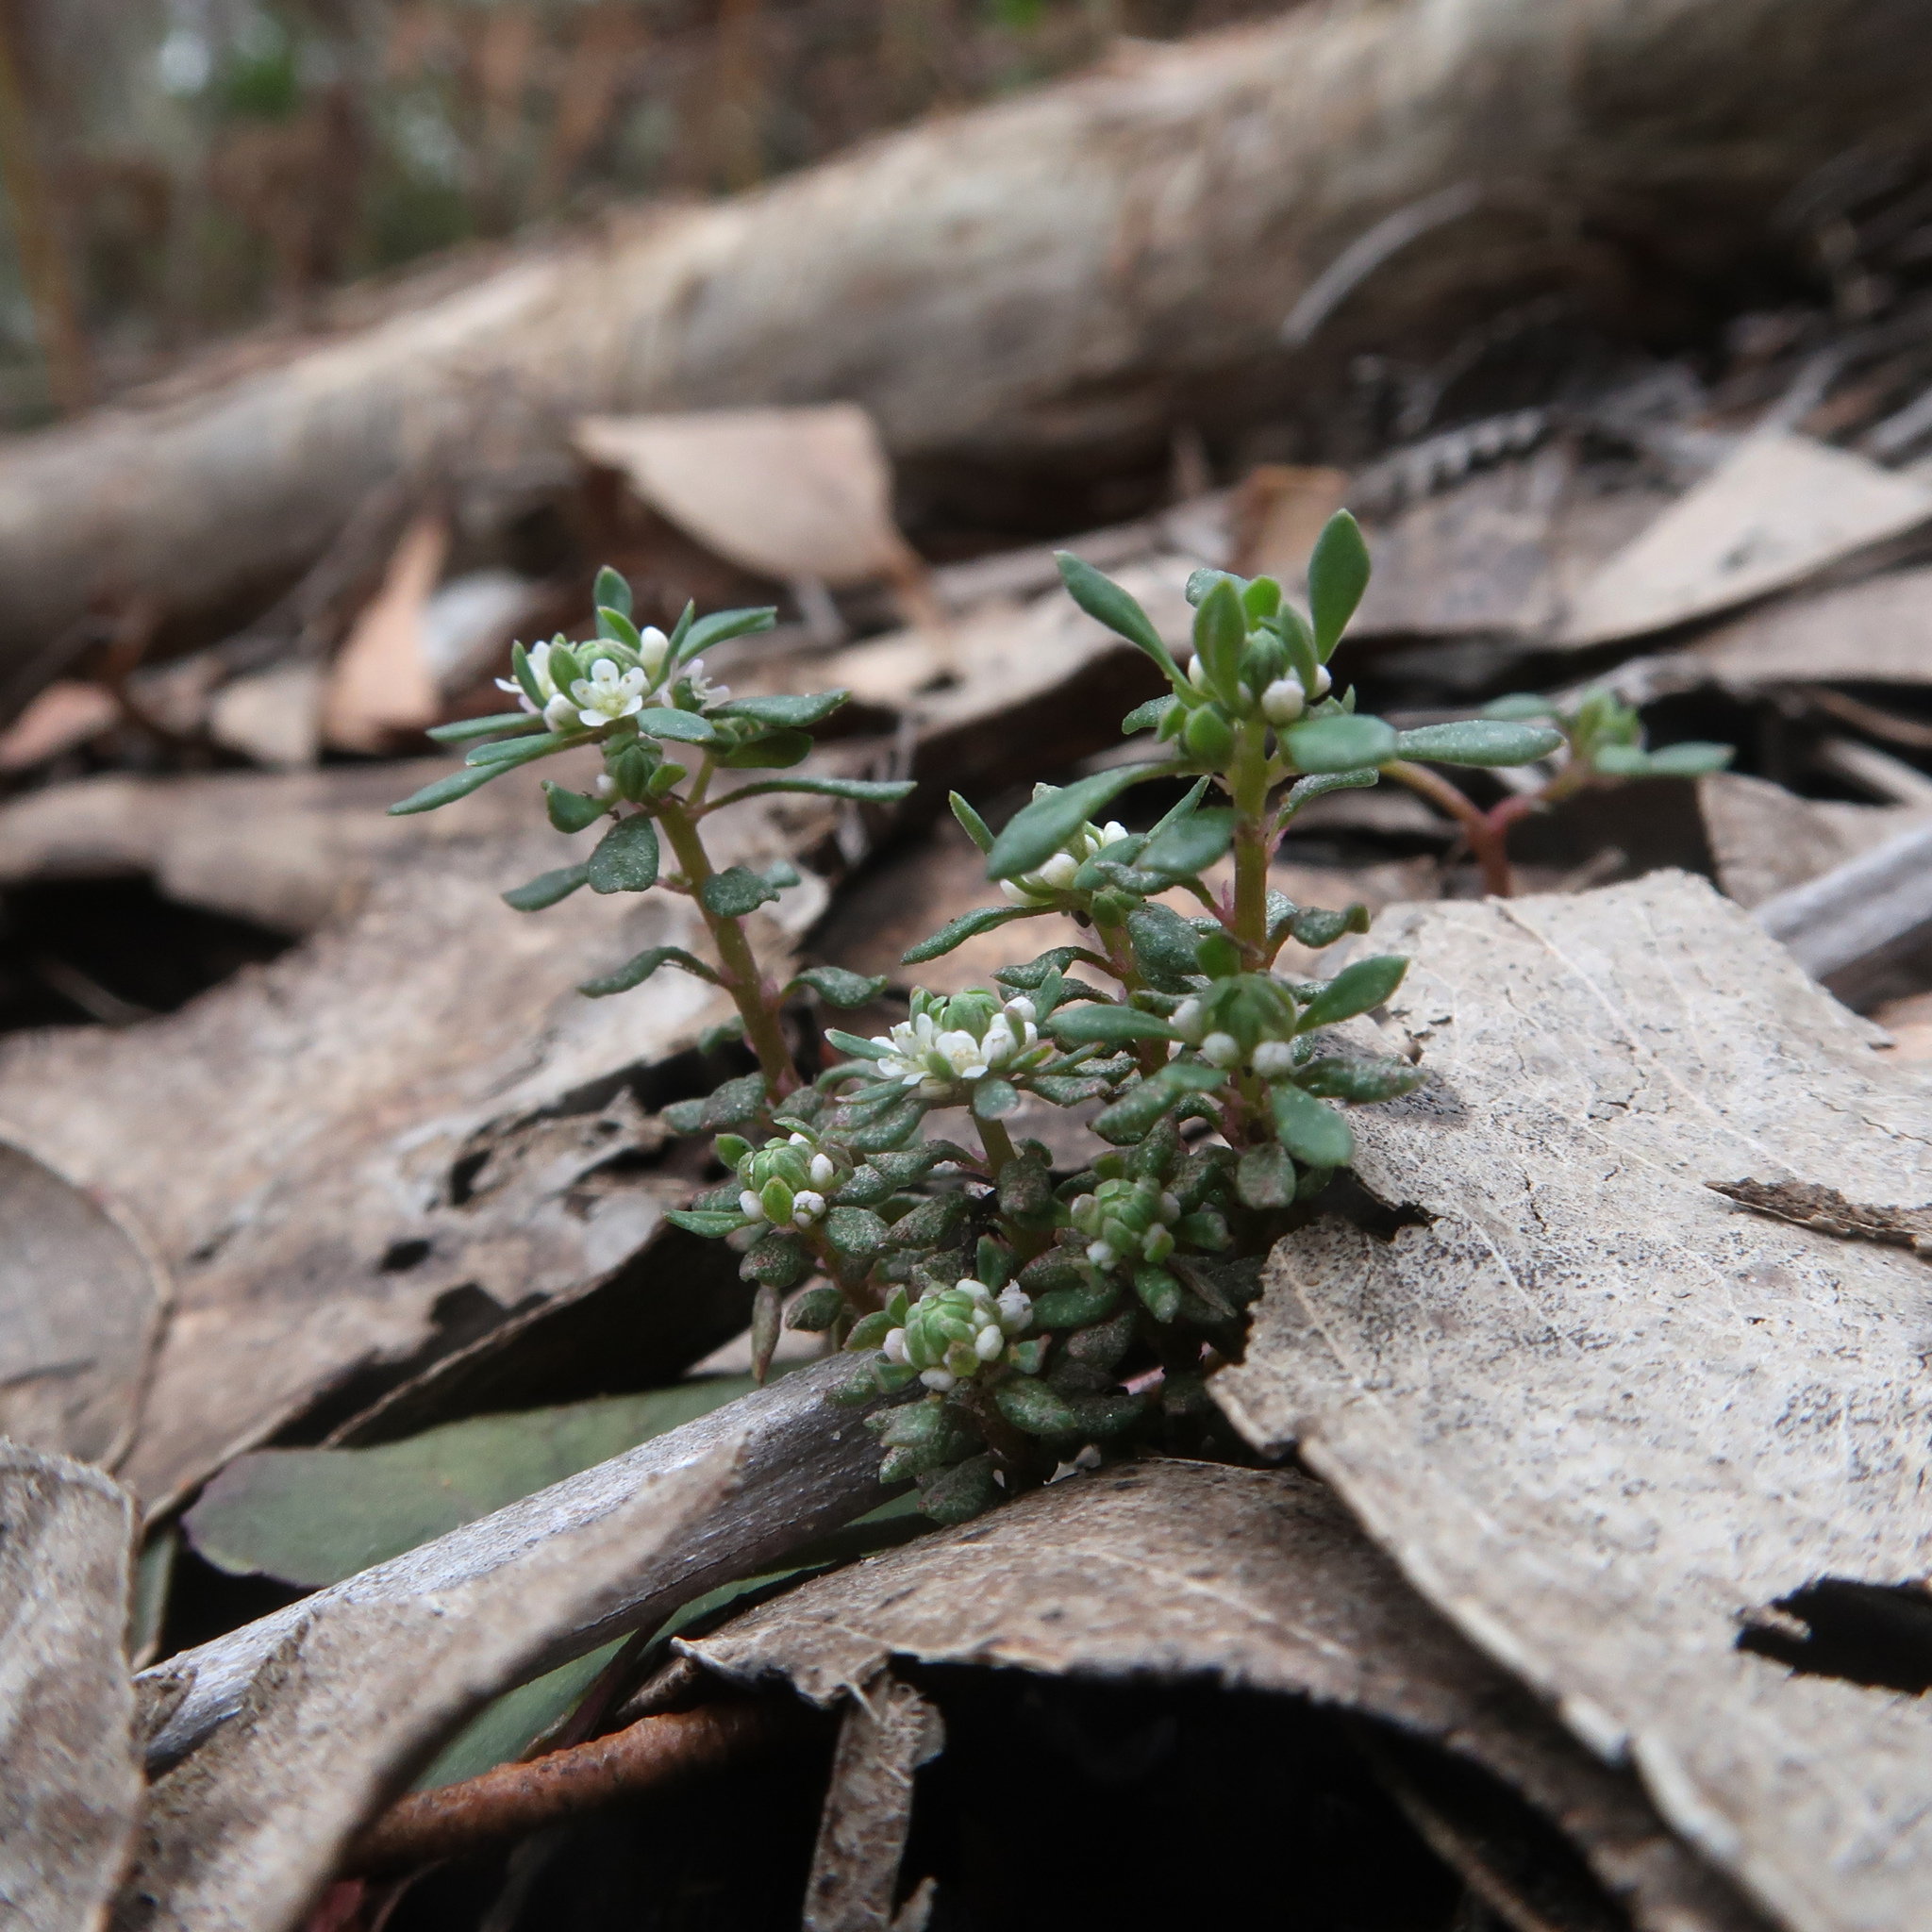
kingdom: Plantae
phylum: Tracheophyta
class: Magnoliopsida
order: Malpighiales
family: Phyllanthaceae
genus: Poranthera
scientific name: Poranthera microphylla
